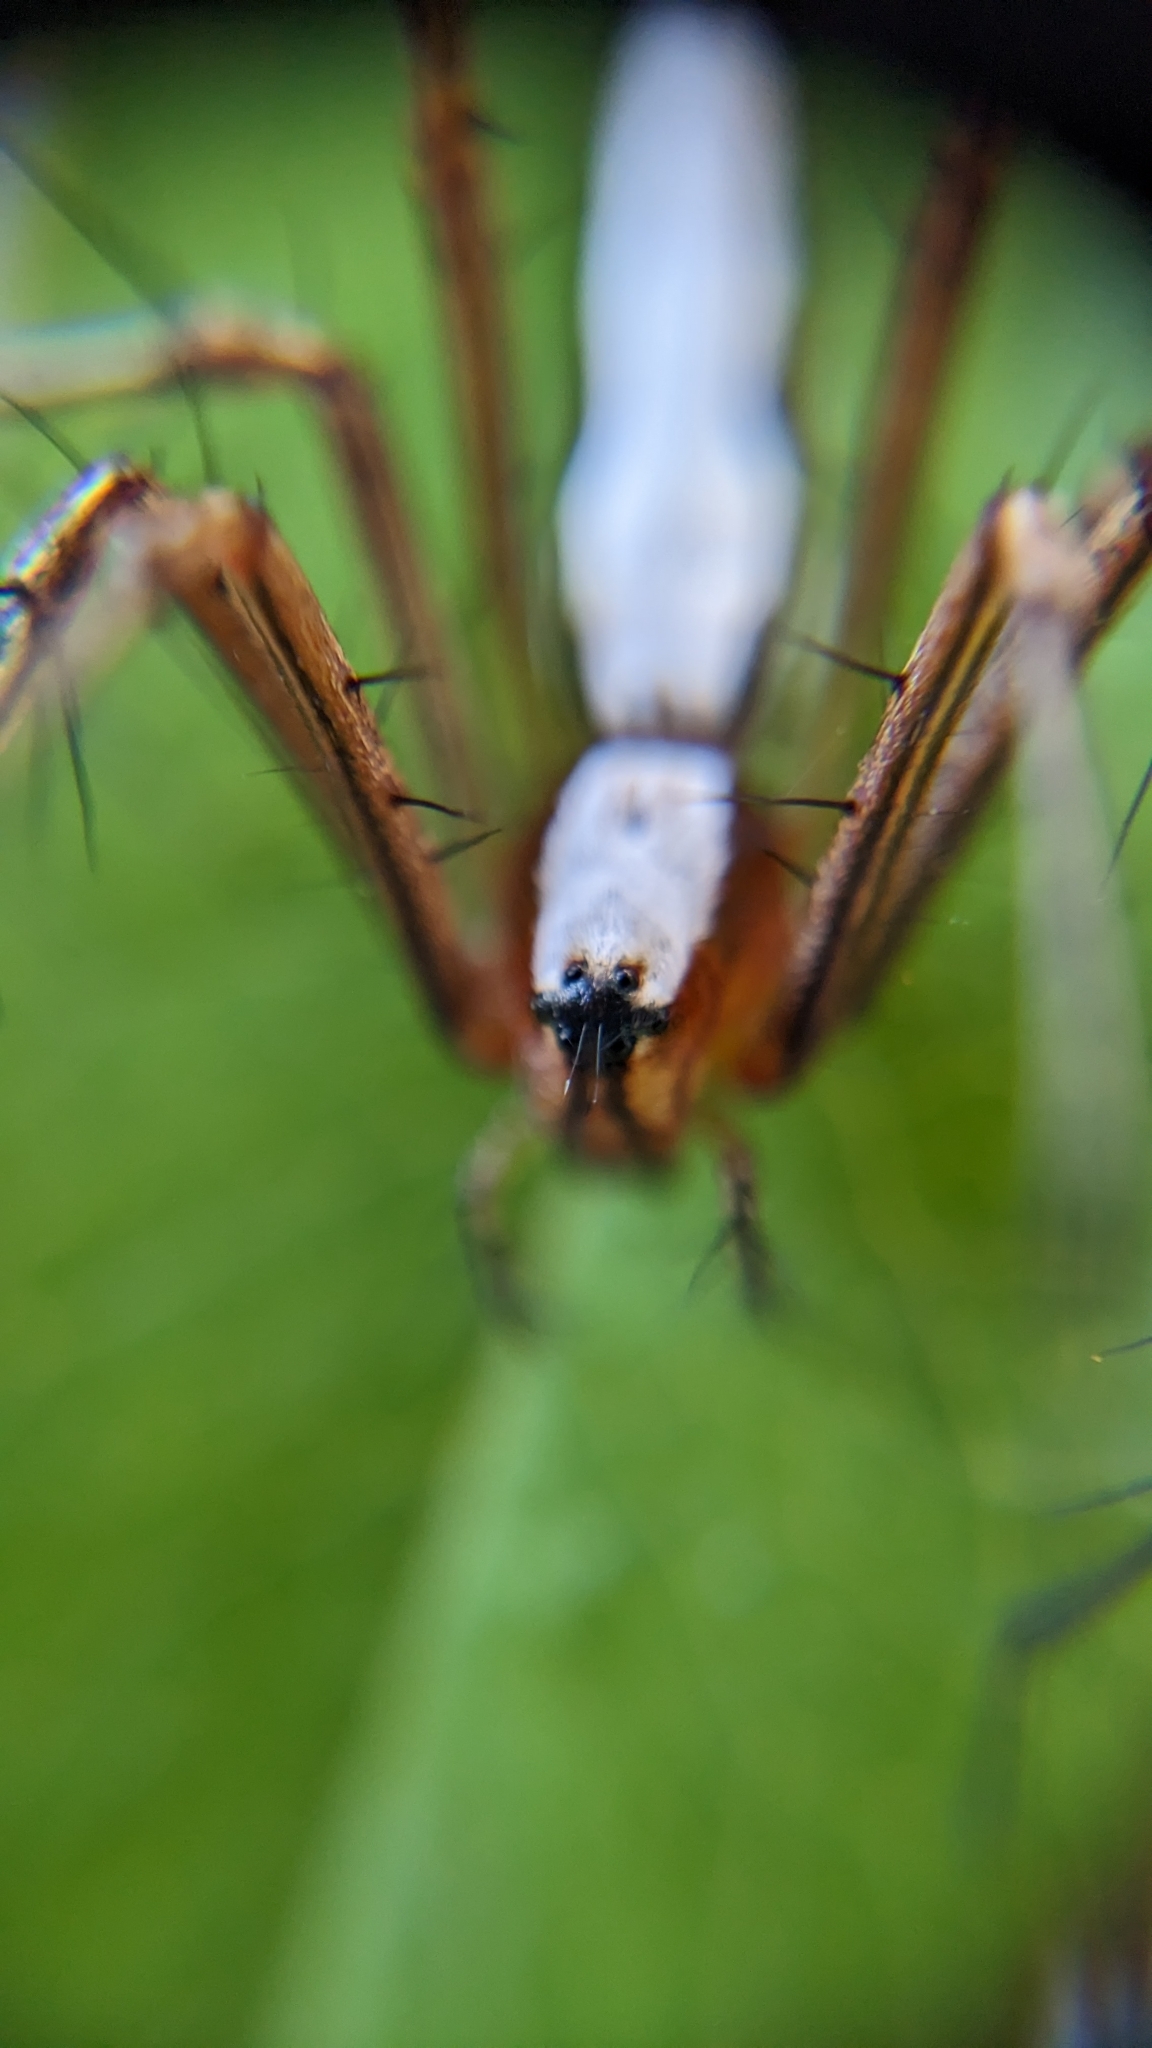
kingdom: Animalia
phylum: Arthropoda
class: Arachnida
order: Araneae
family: Oxyopidae
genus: Oxyopes
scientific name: Oxyopes shweta
